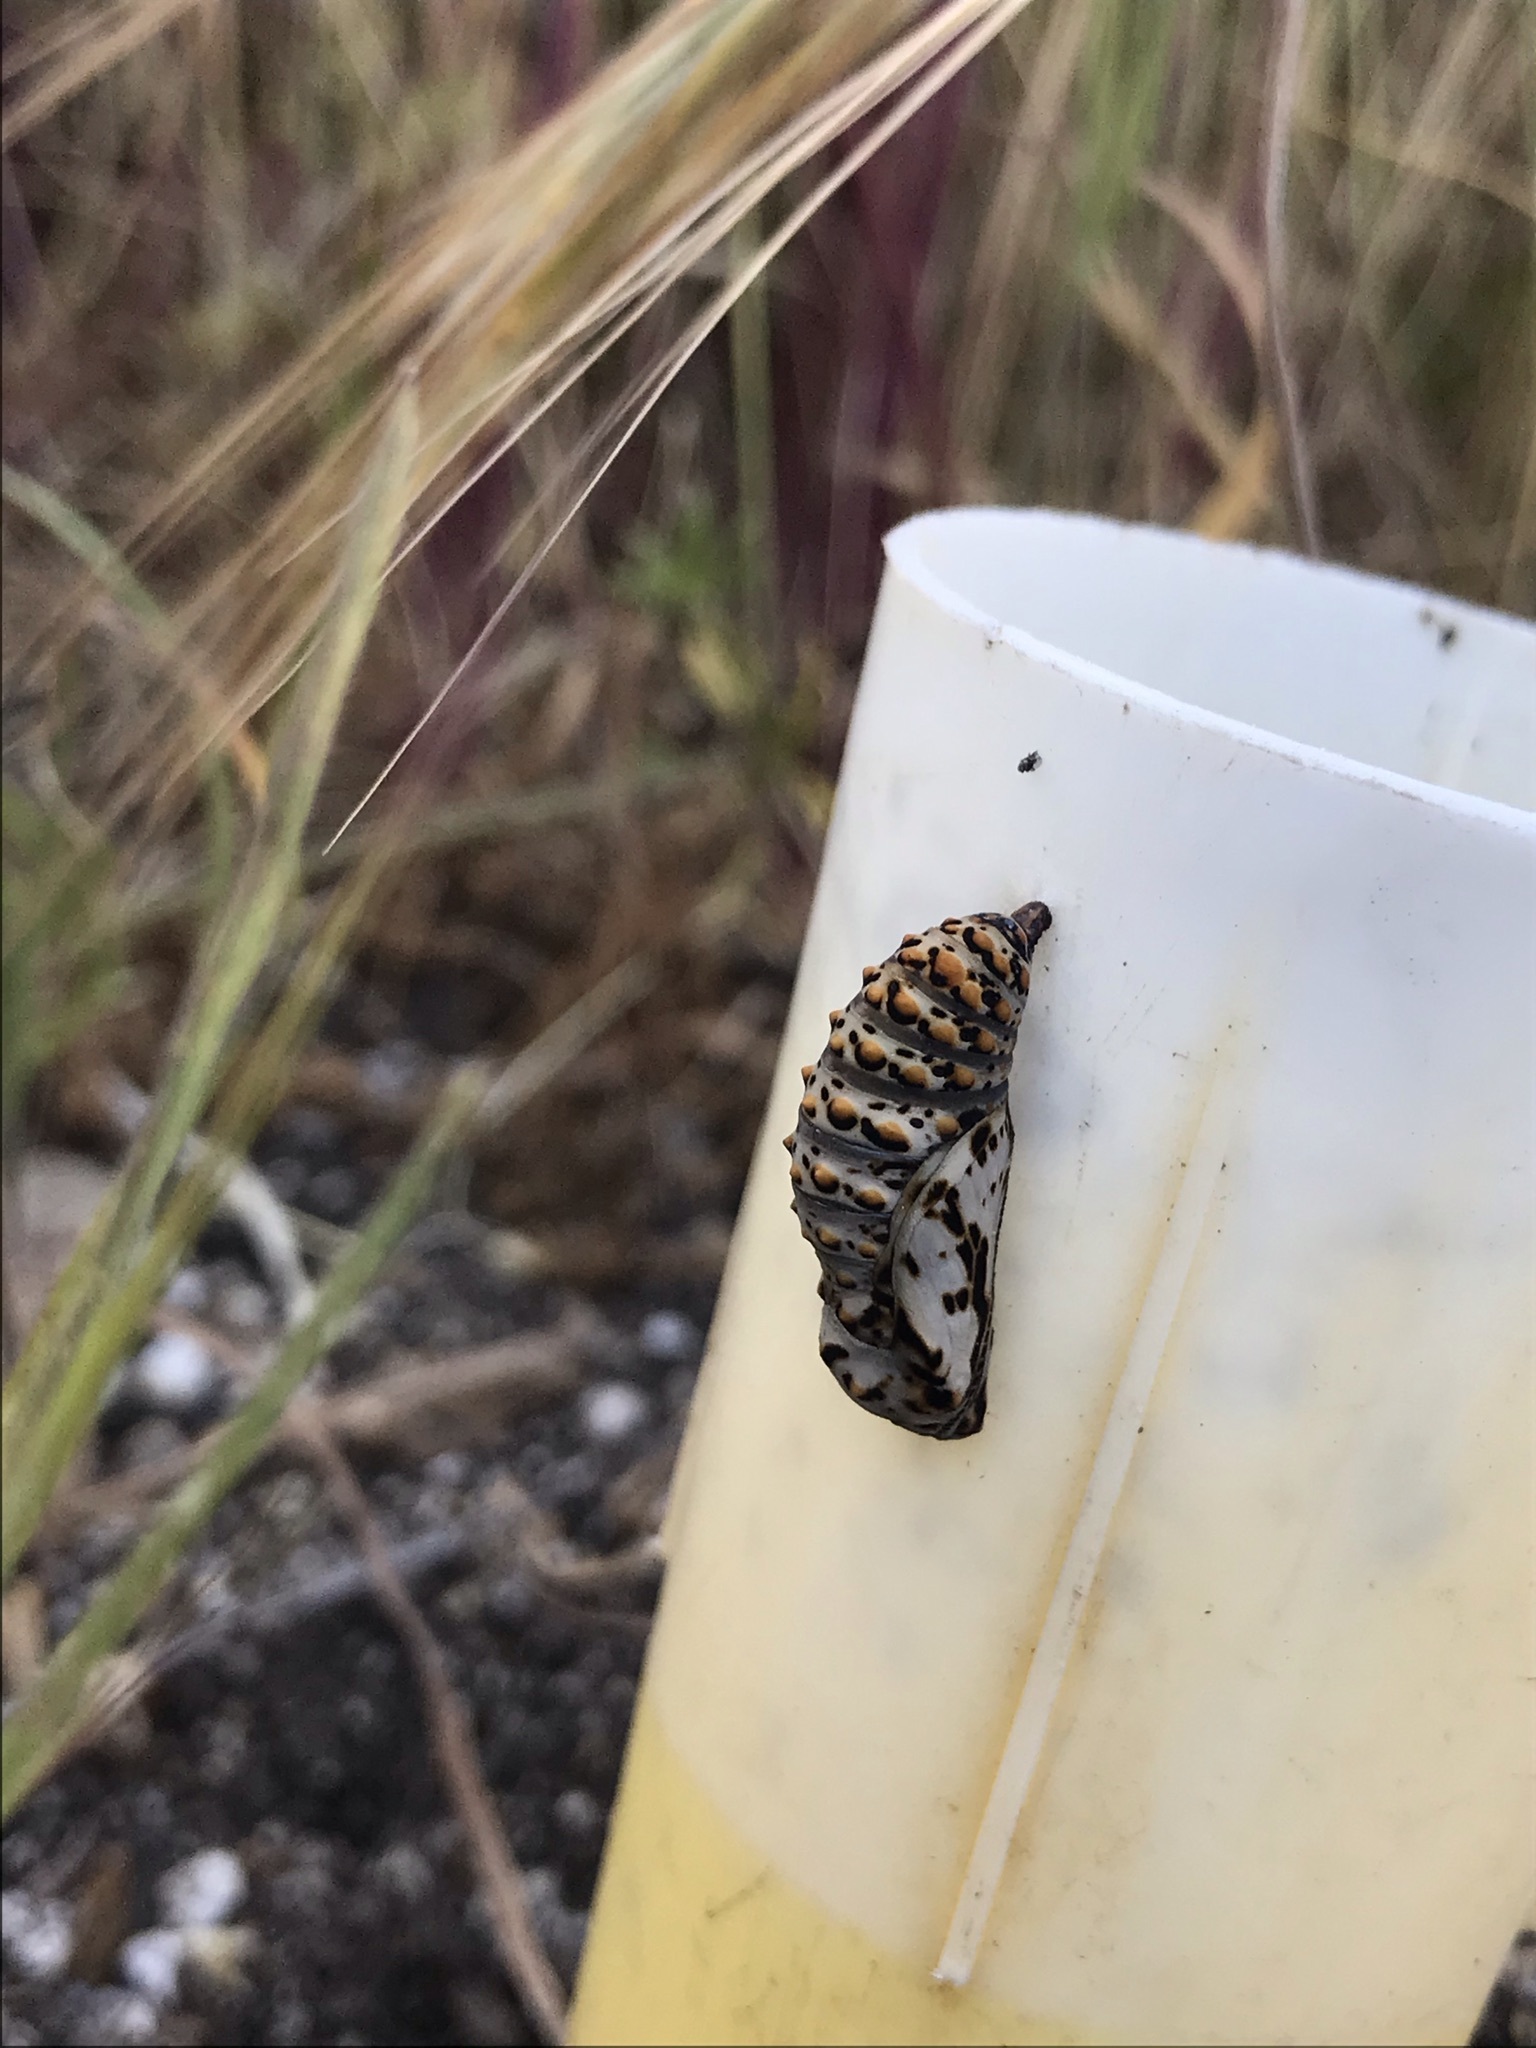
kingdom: Animalia
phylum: Arthropoda
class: Insecta
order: Lepidoptera
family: Nymphalidae
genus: Occidryas
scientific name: Occidryas chalcedona
